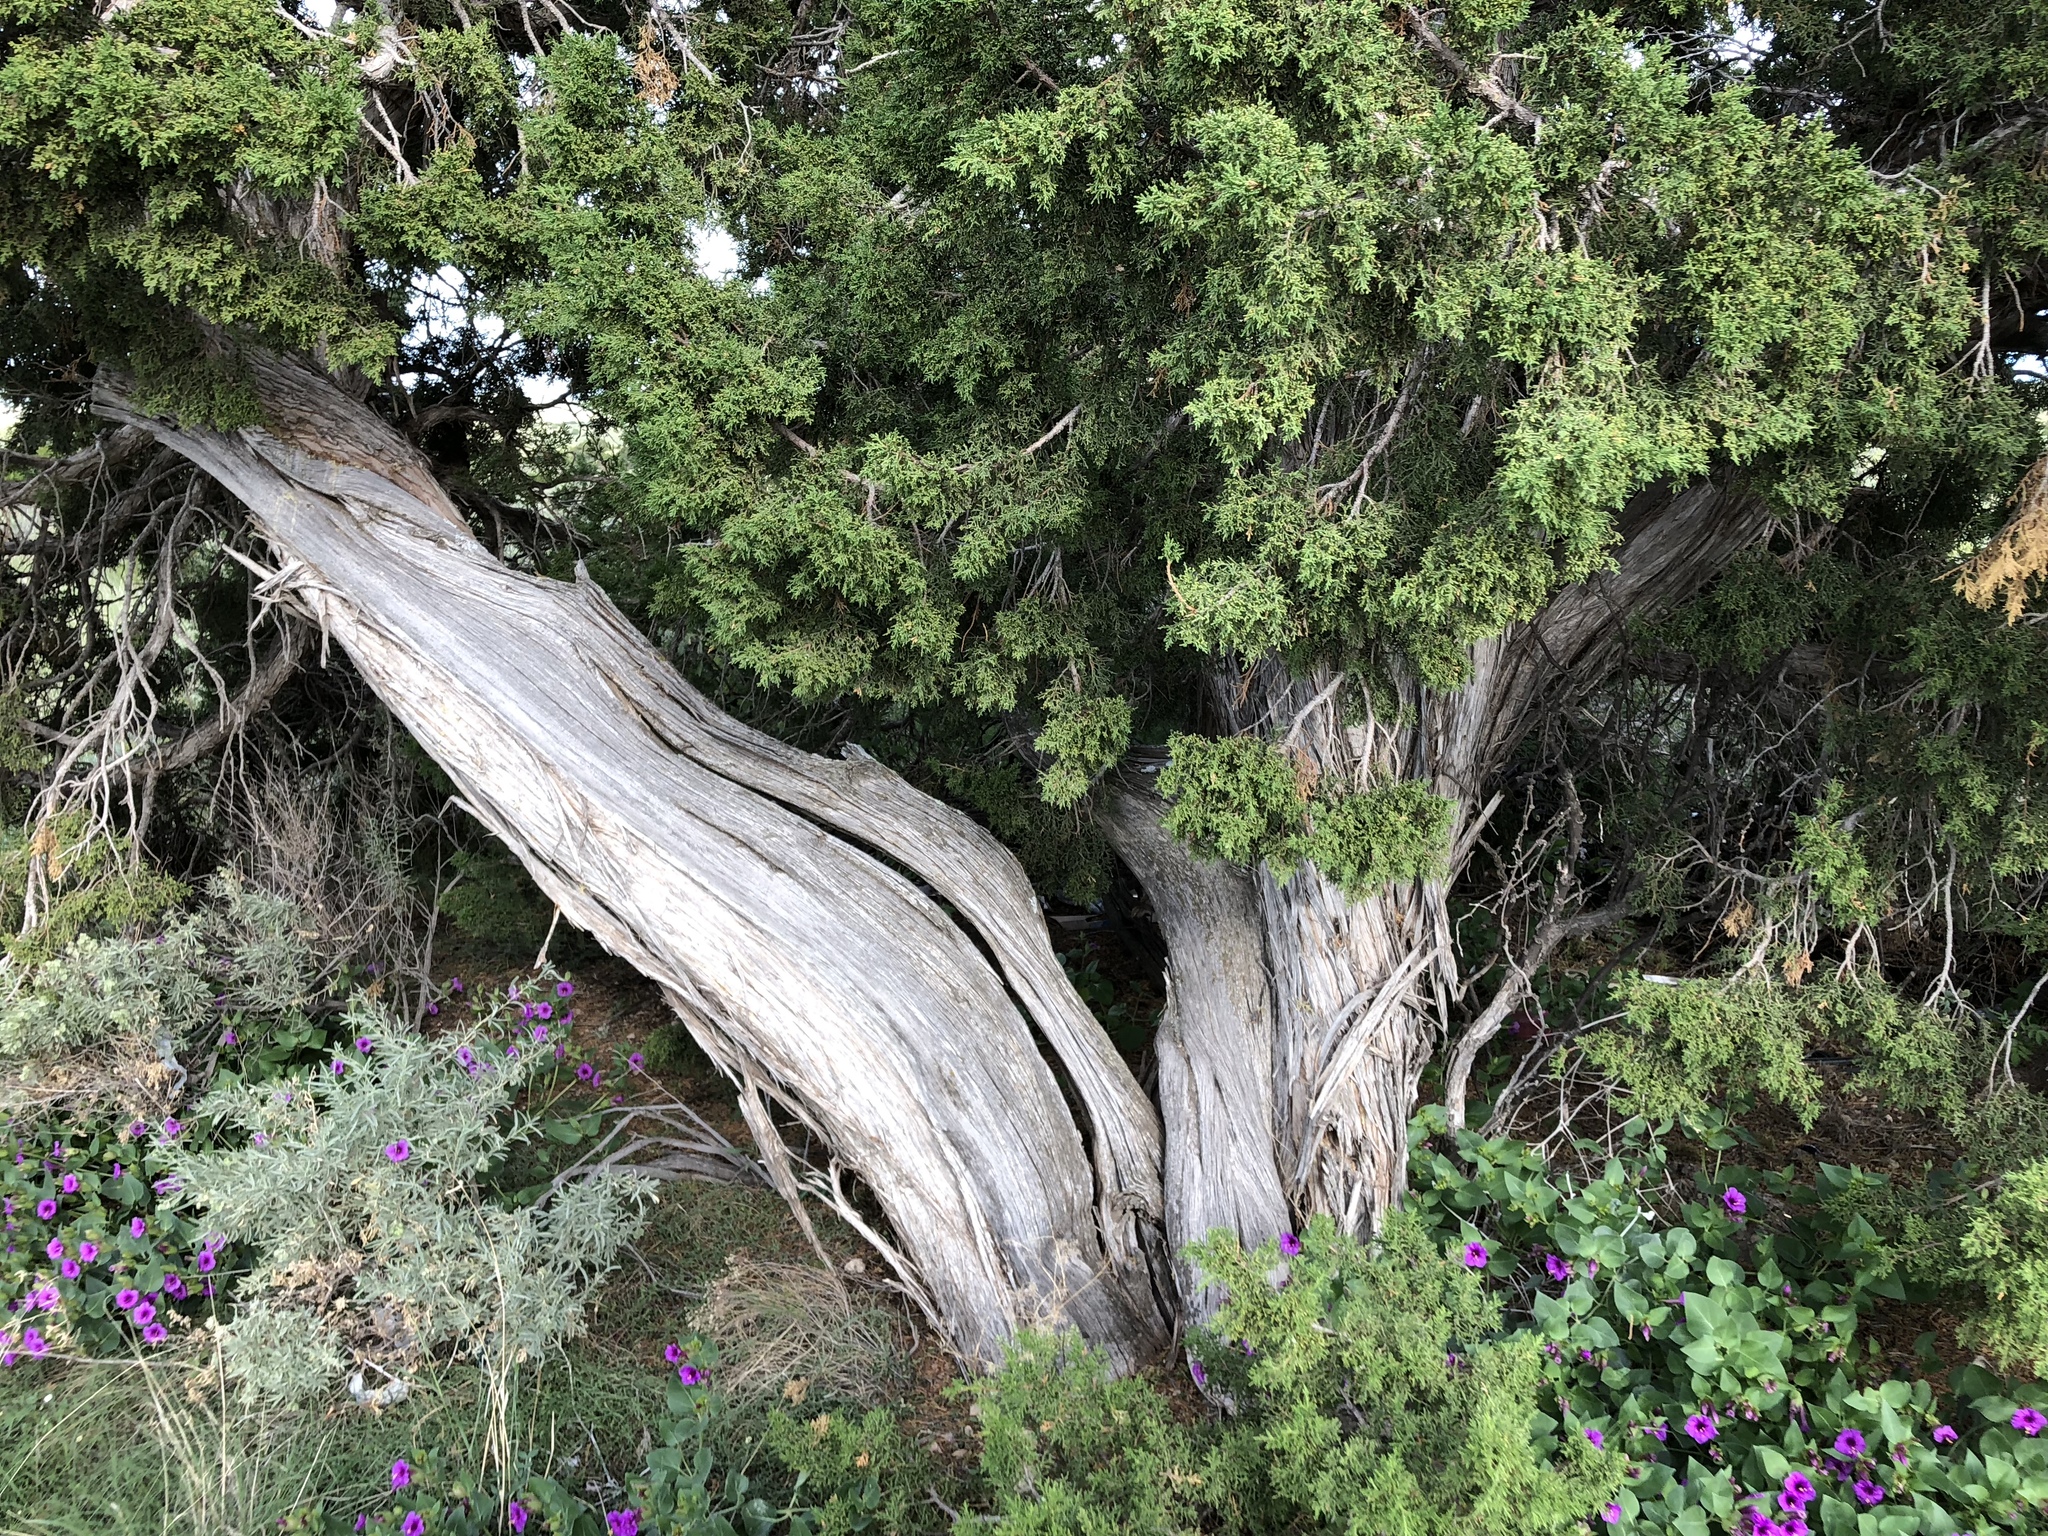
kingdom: Plantae
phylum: Tracheophyta
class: Pinopsida
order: Pinales
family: Cupressaceae
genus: Juniperus
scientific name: Juniperus monosperma
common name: One-seed juniper
